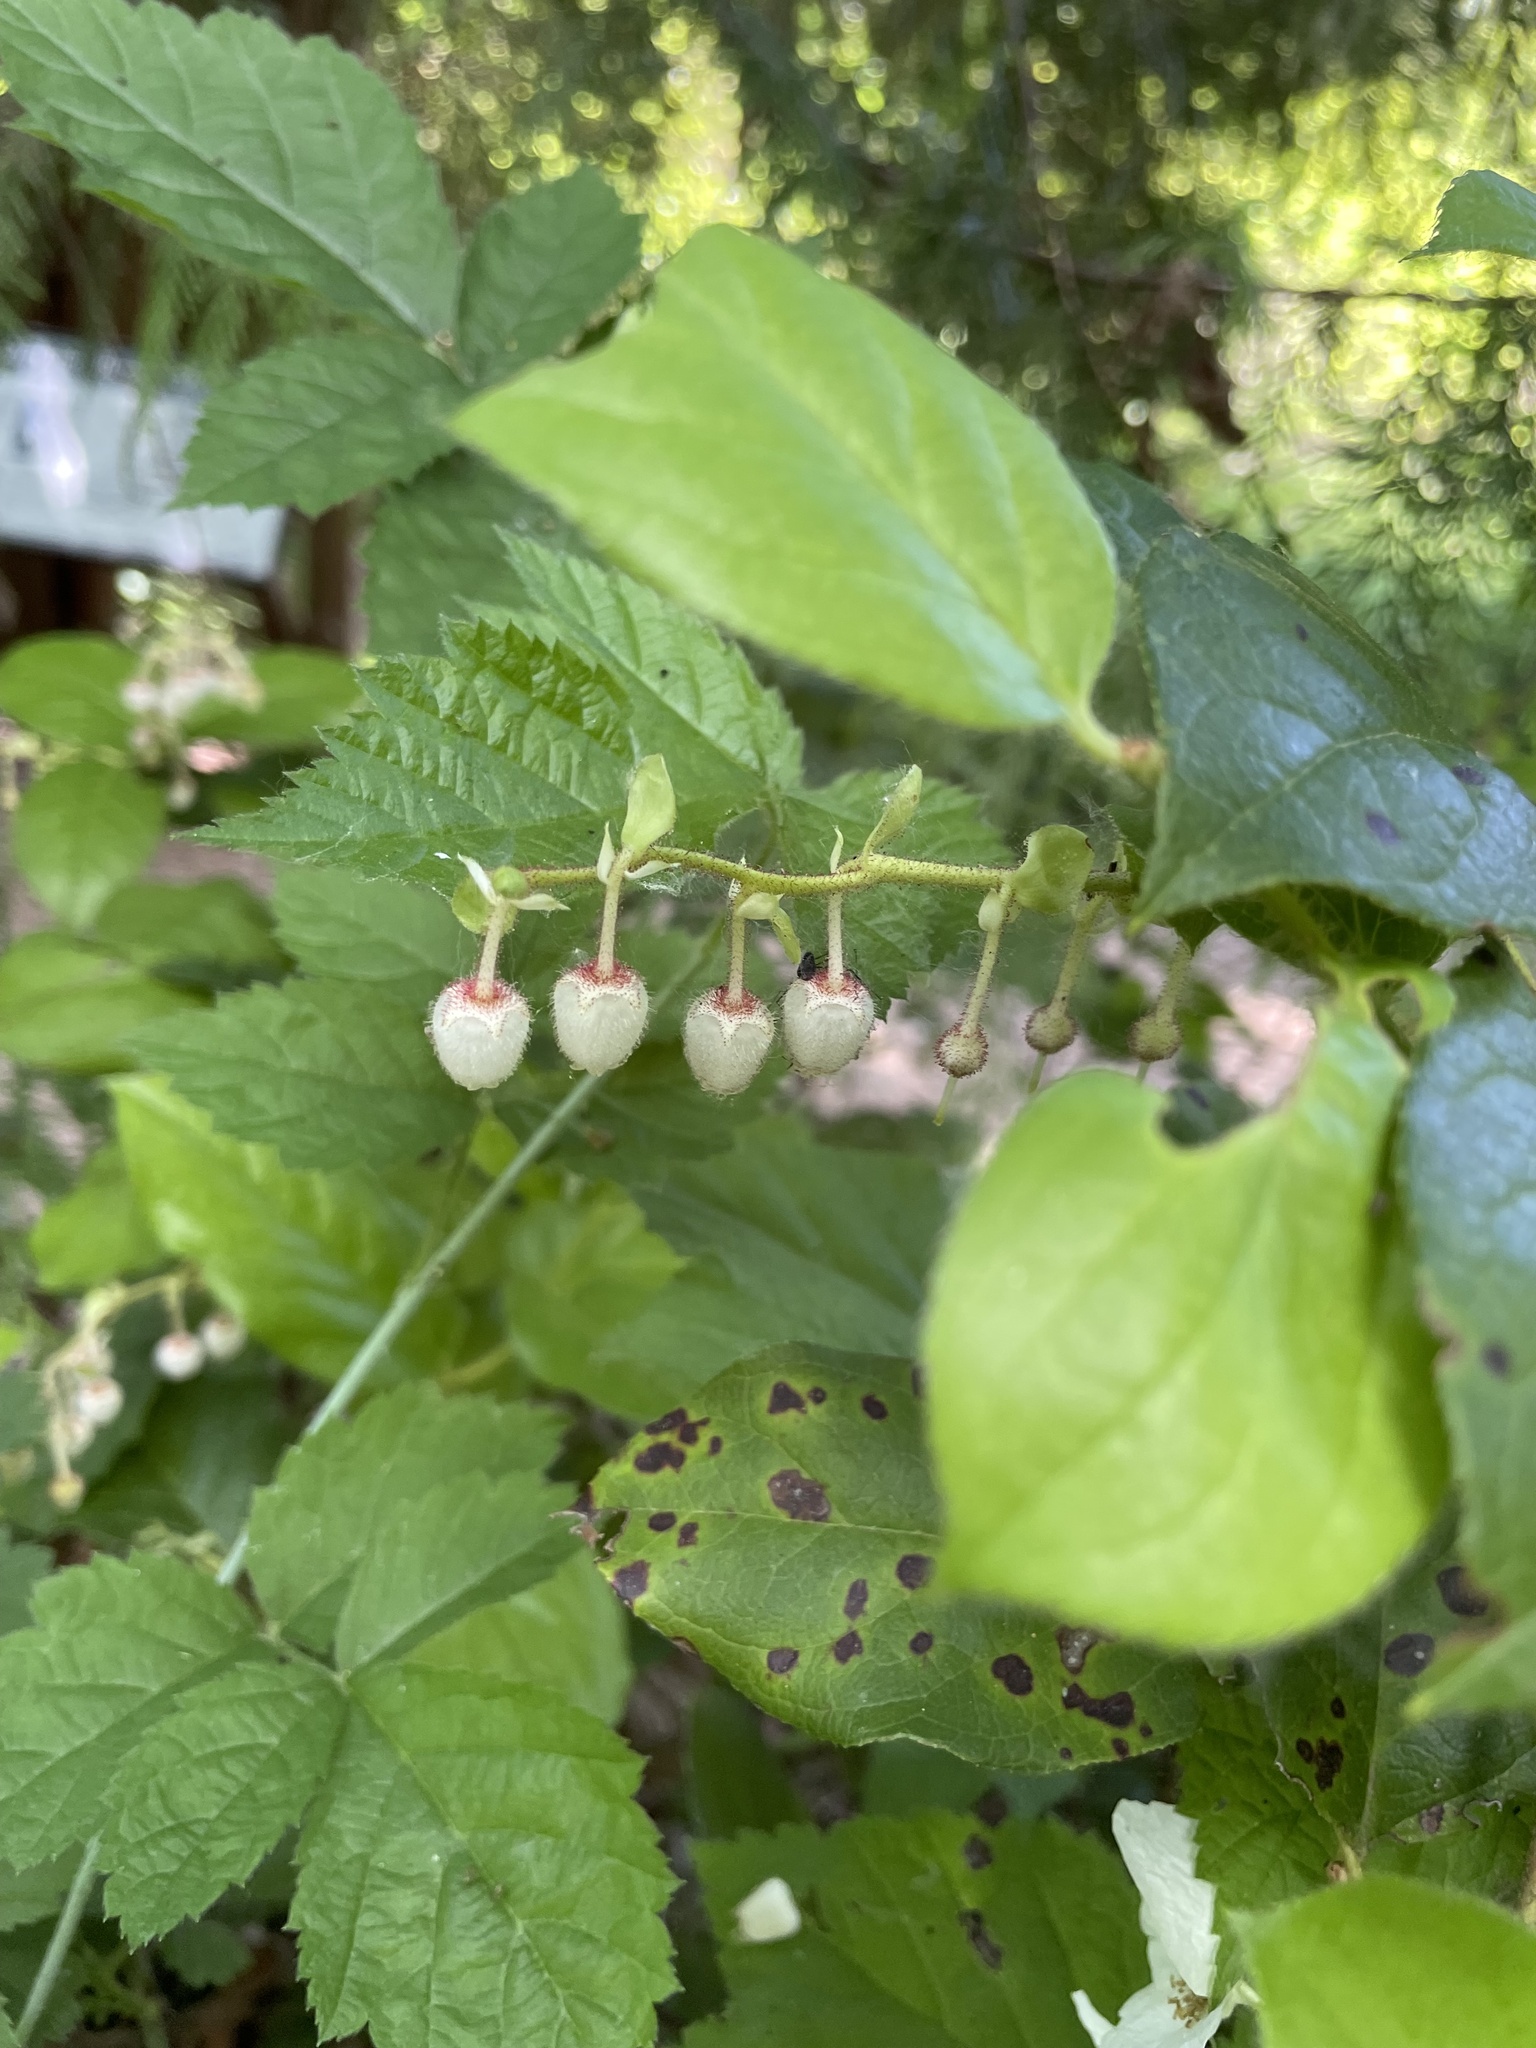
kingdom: Plantae
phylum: Tracheophyta
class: Magnoliopsida
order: Ericales
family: Ericaceae
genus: Gaultheria
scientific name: Gaultheria shallon
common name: Shallon
